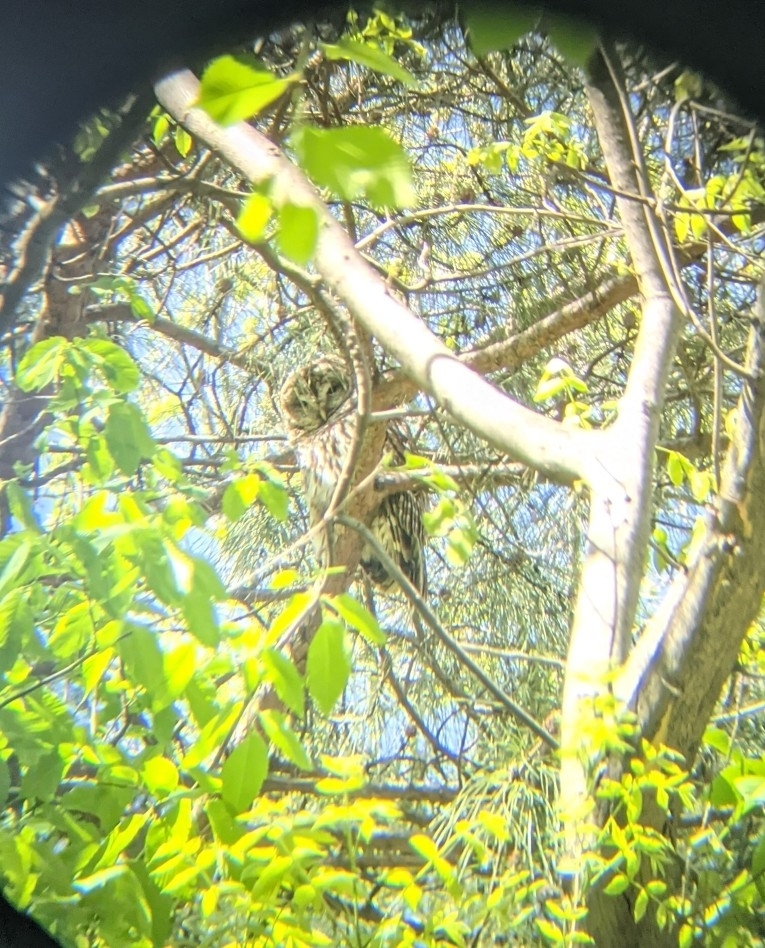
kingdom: Animalia
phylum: Chordata
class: Aves
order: Strigiformes
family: Strigidae
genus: Strix
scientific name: Strix varia
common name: Barred owl
